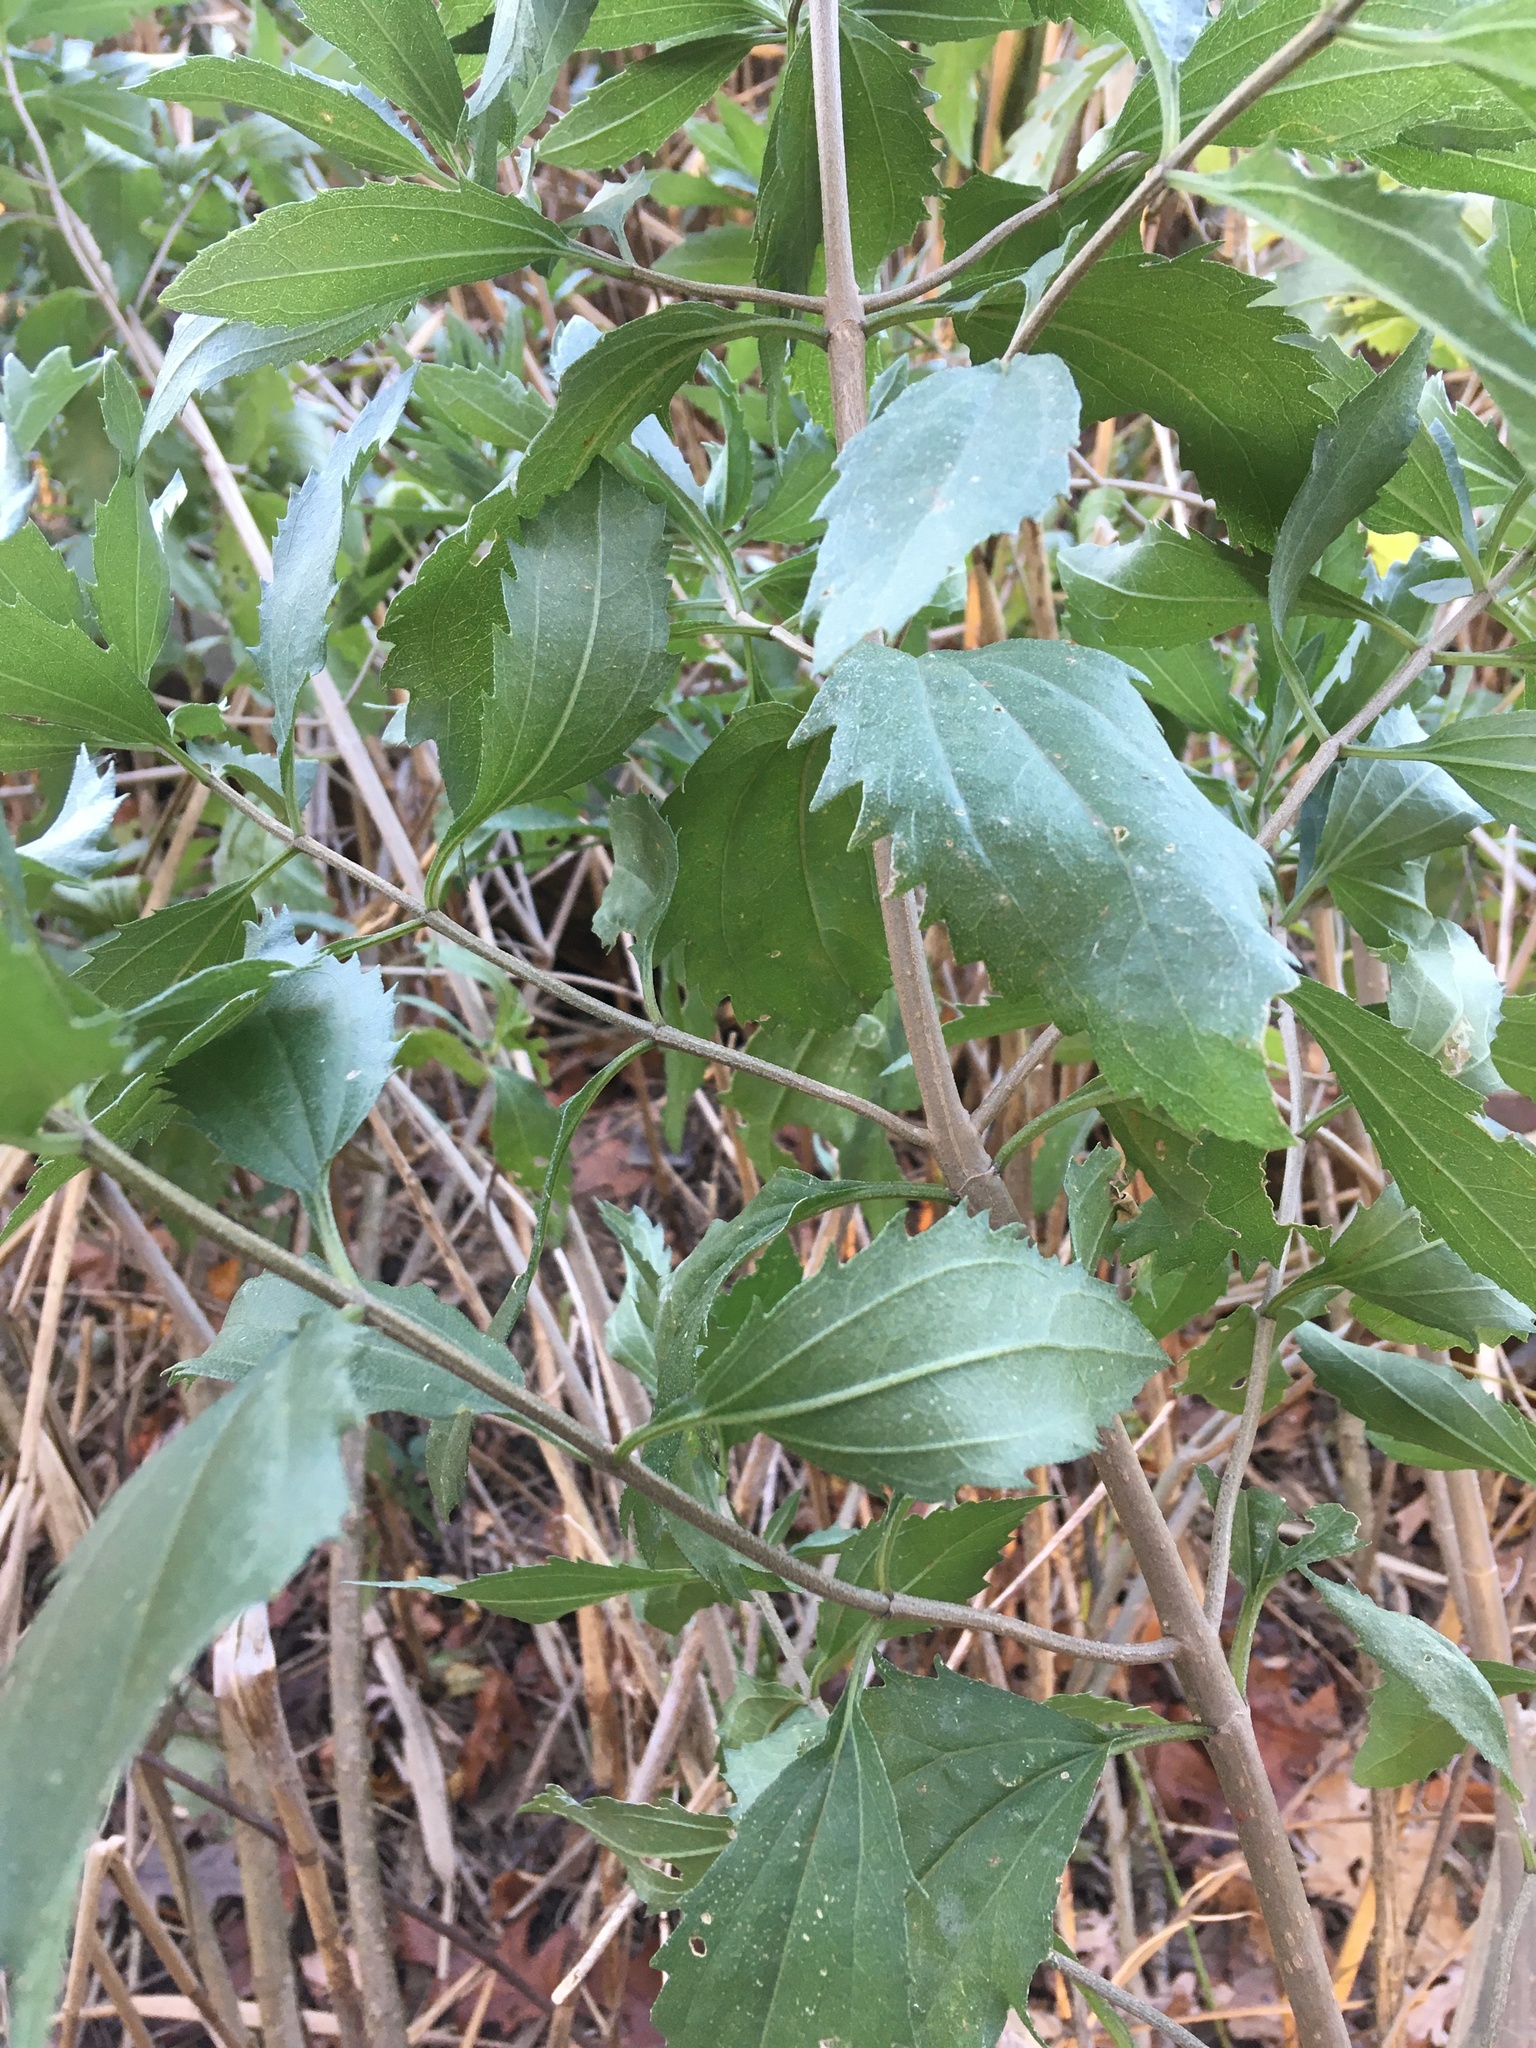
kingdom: Plantae
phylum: Tracheophyta
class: Magnoliopsida
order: Asterales
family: Asteraceae
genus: Baccharis
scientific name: Baccharis halimifolia
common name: Eastern baccharis
